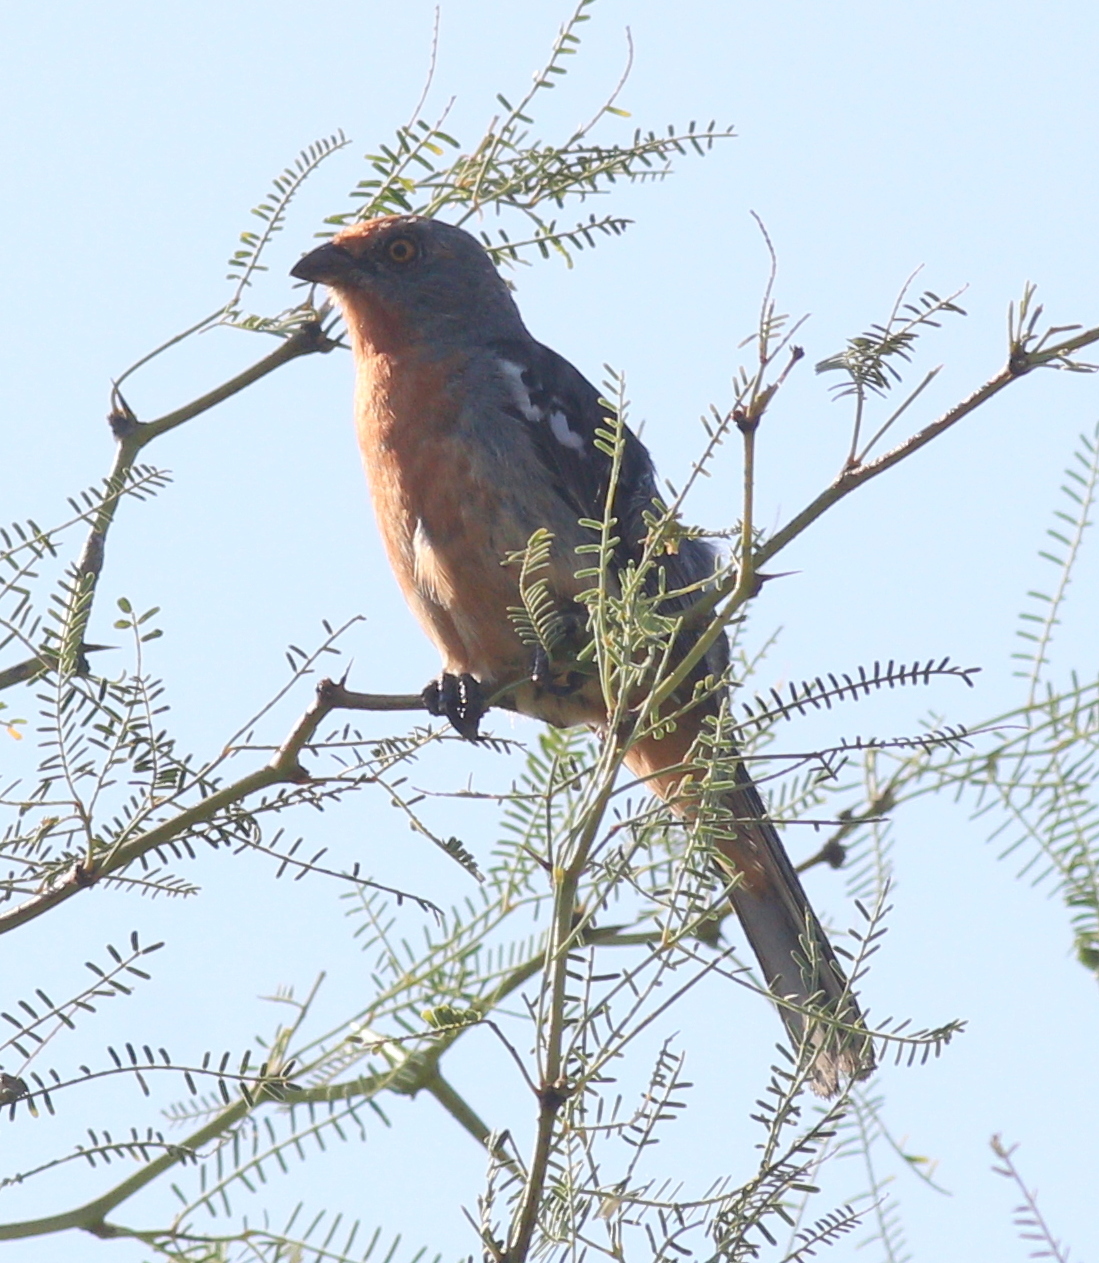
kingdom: Animalia
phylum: Chordata
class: Aves
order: Passeriformes
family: Cotingidae
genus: Phytotoma
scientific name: Phytotoma rutila
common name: White-tipped plantcutter
